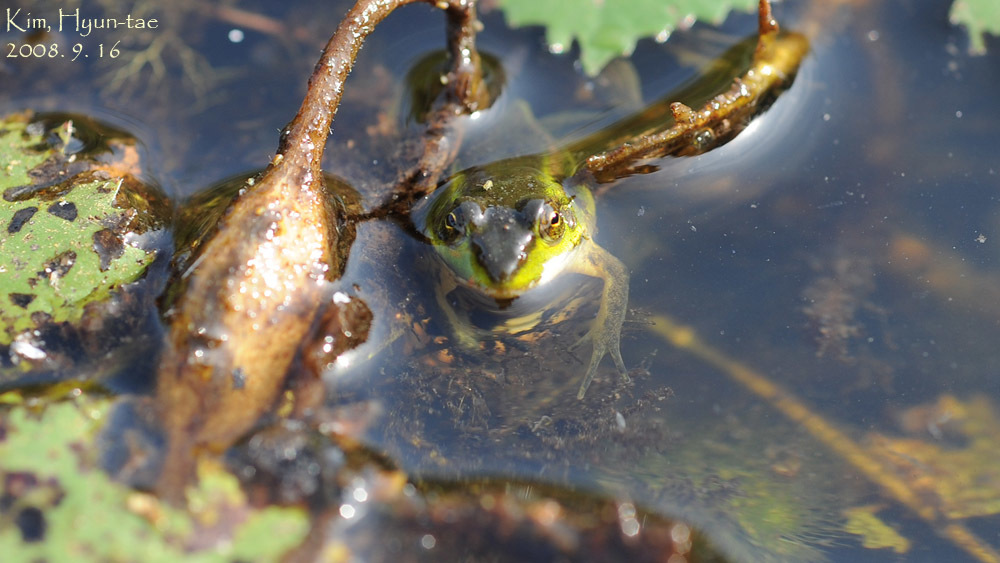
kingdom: Animalia
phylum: Chordata
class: Amphibia
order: Anura
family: Ranidae
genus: Pelophylax
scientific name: Pelophylax chosenicus
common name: Gold-spotted pond frog
